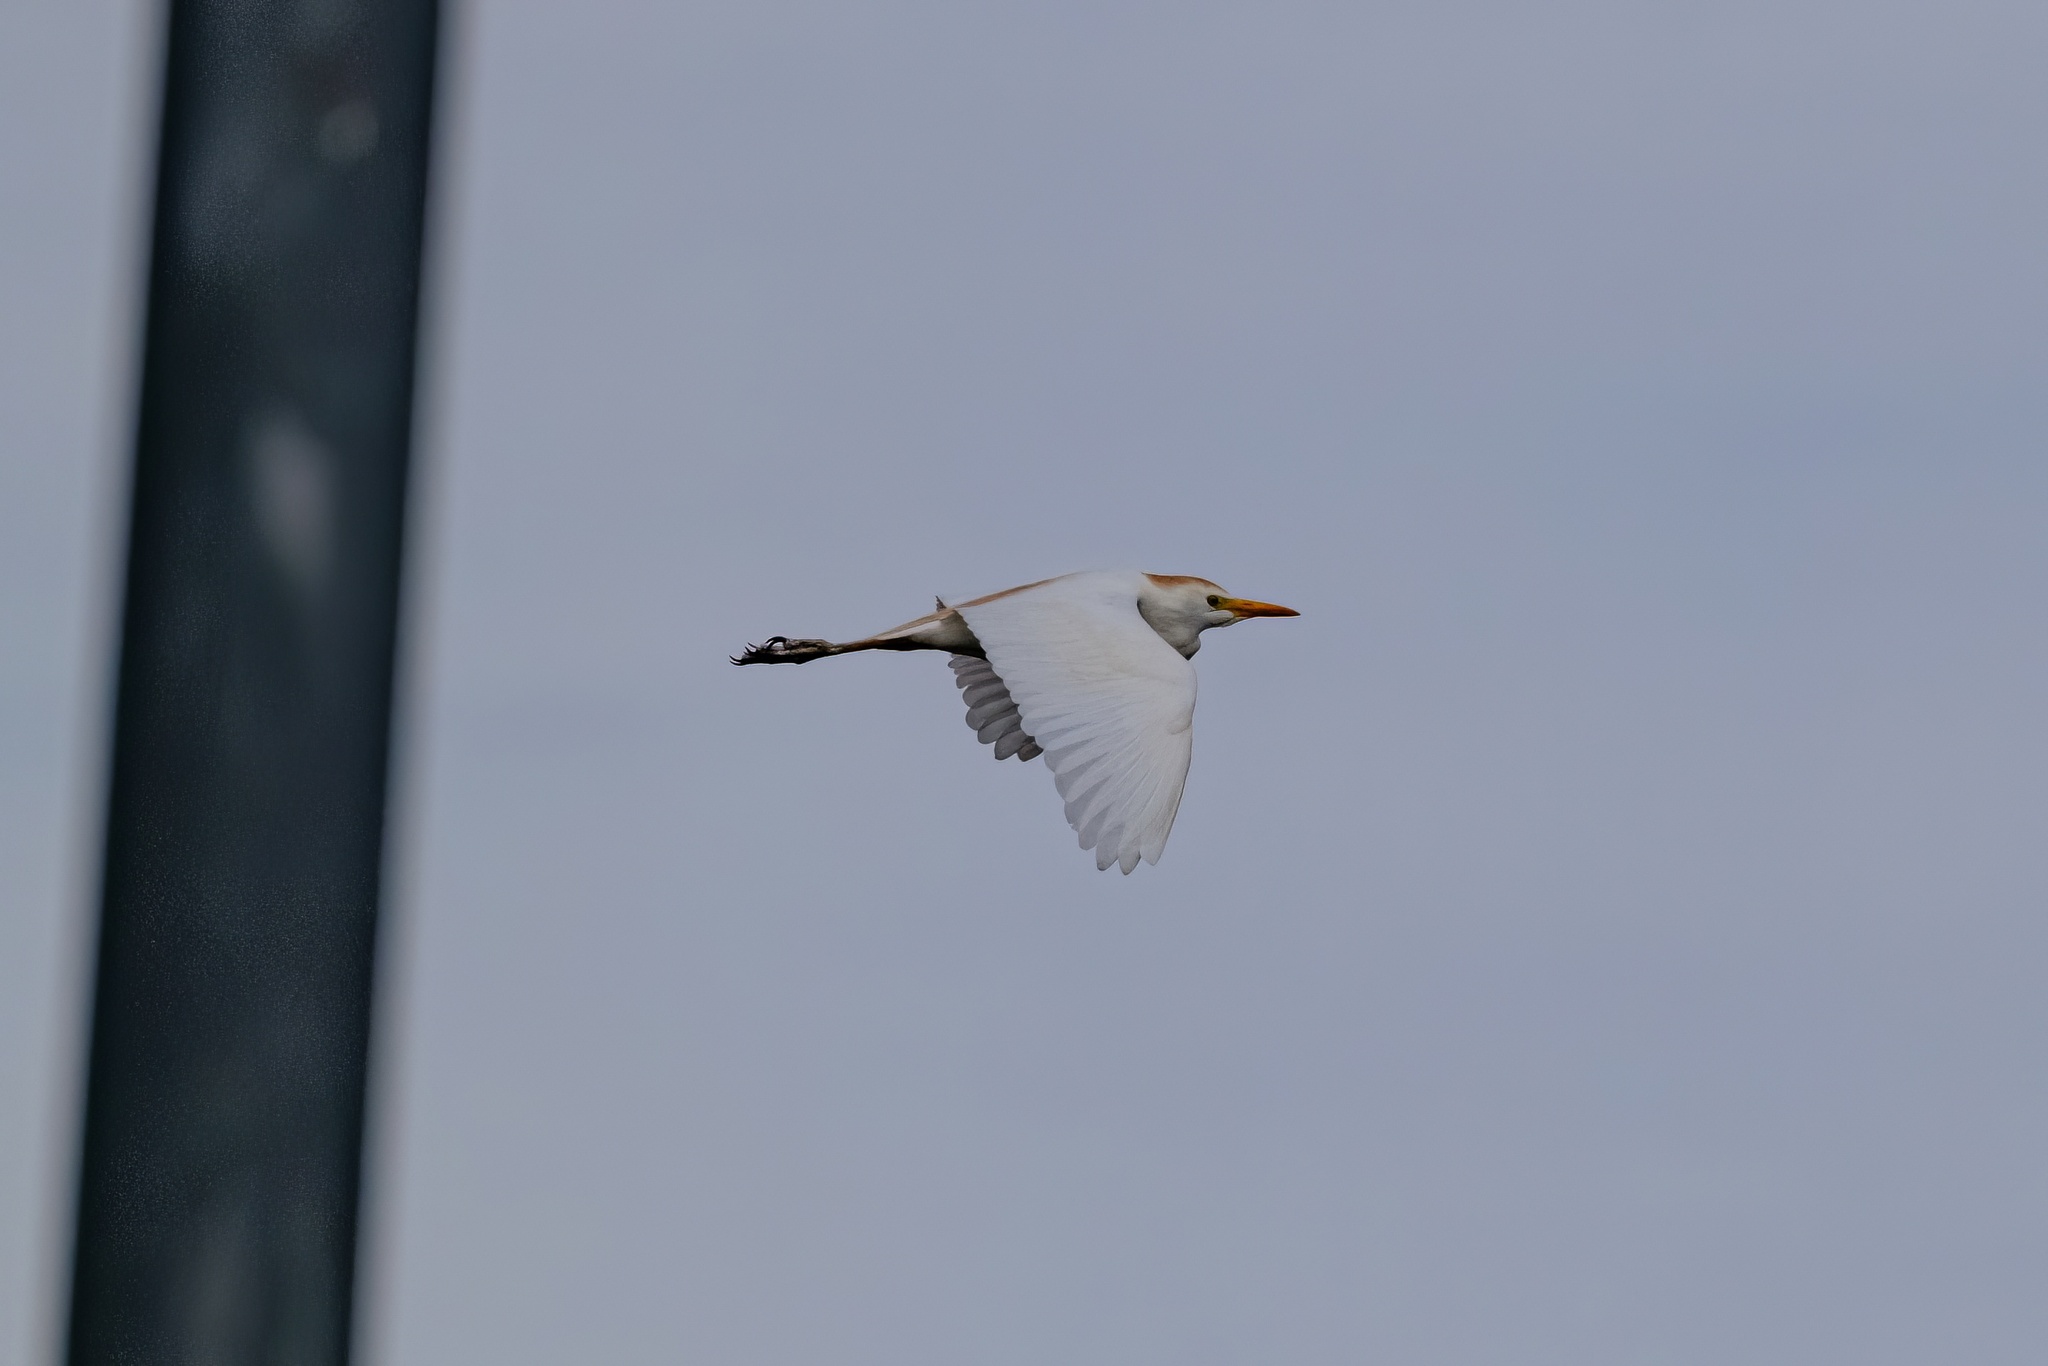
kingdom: Animalia
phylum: Chordata
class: Aves
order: Pelecaniformes
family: Ardeidae
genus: Bubulcus
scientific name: Bubulcus ibis
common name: Cattle egret
